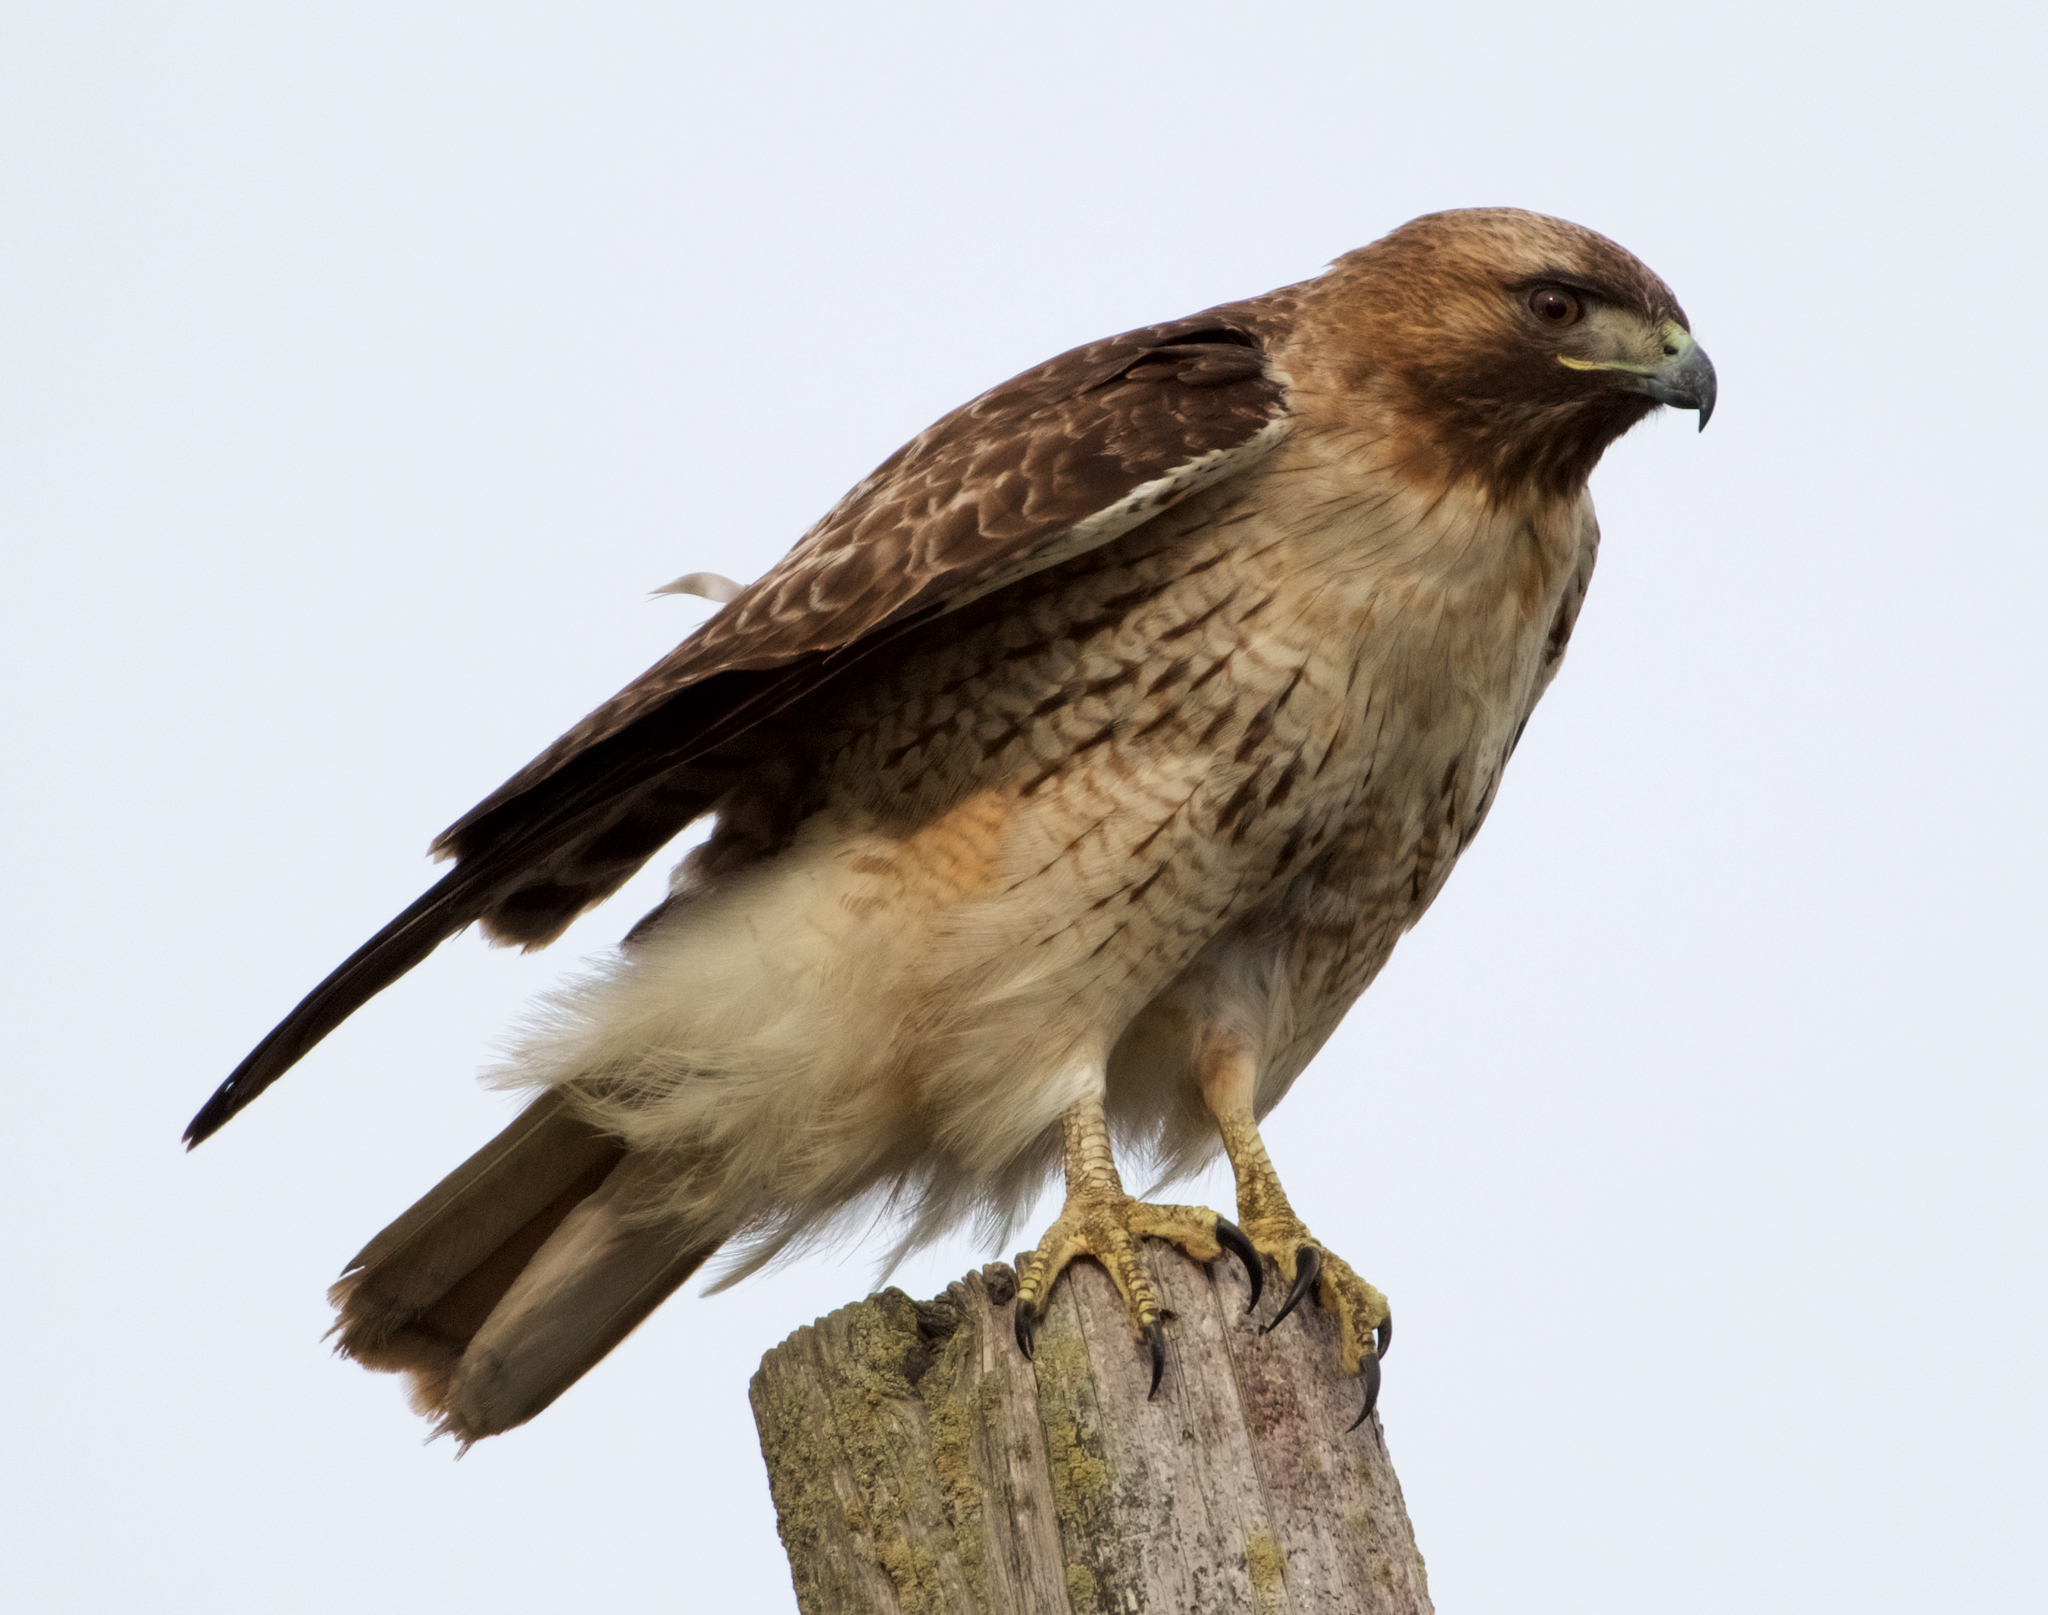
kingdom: Animalia
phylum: Chordata
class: Aves
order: Accipitriformes
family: Accipitridae
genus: Buteo
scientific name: Buteo jamaicensis
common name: Red-tailed hawk
